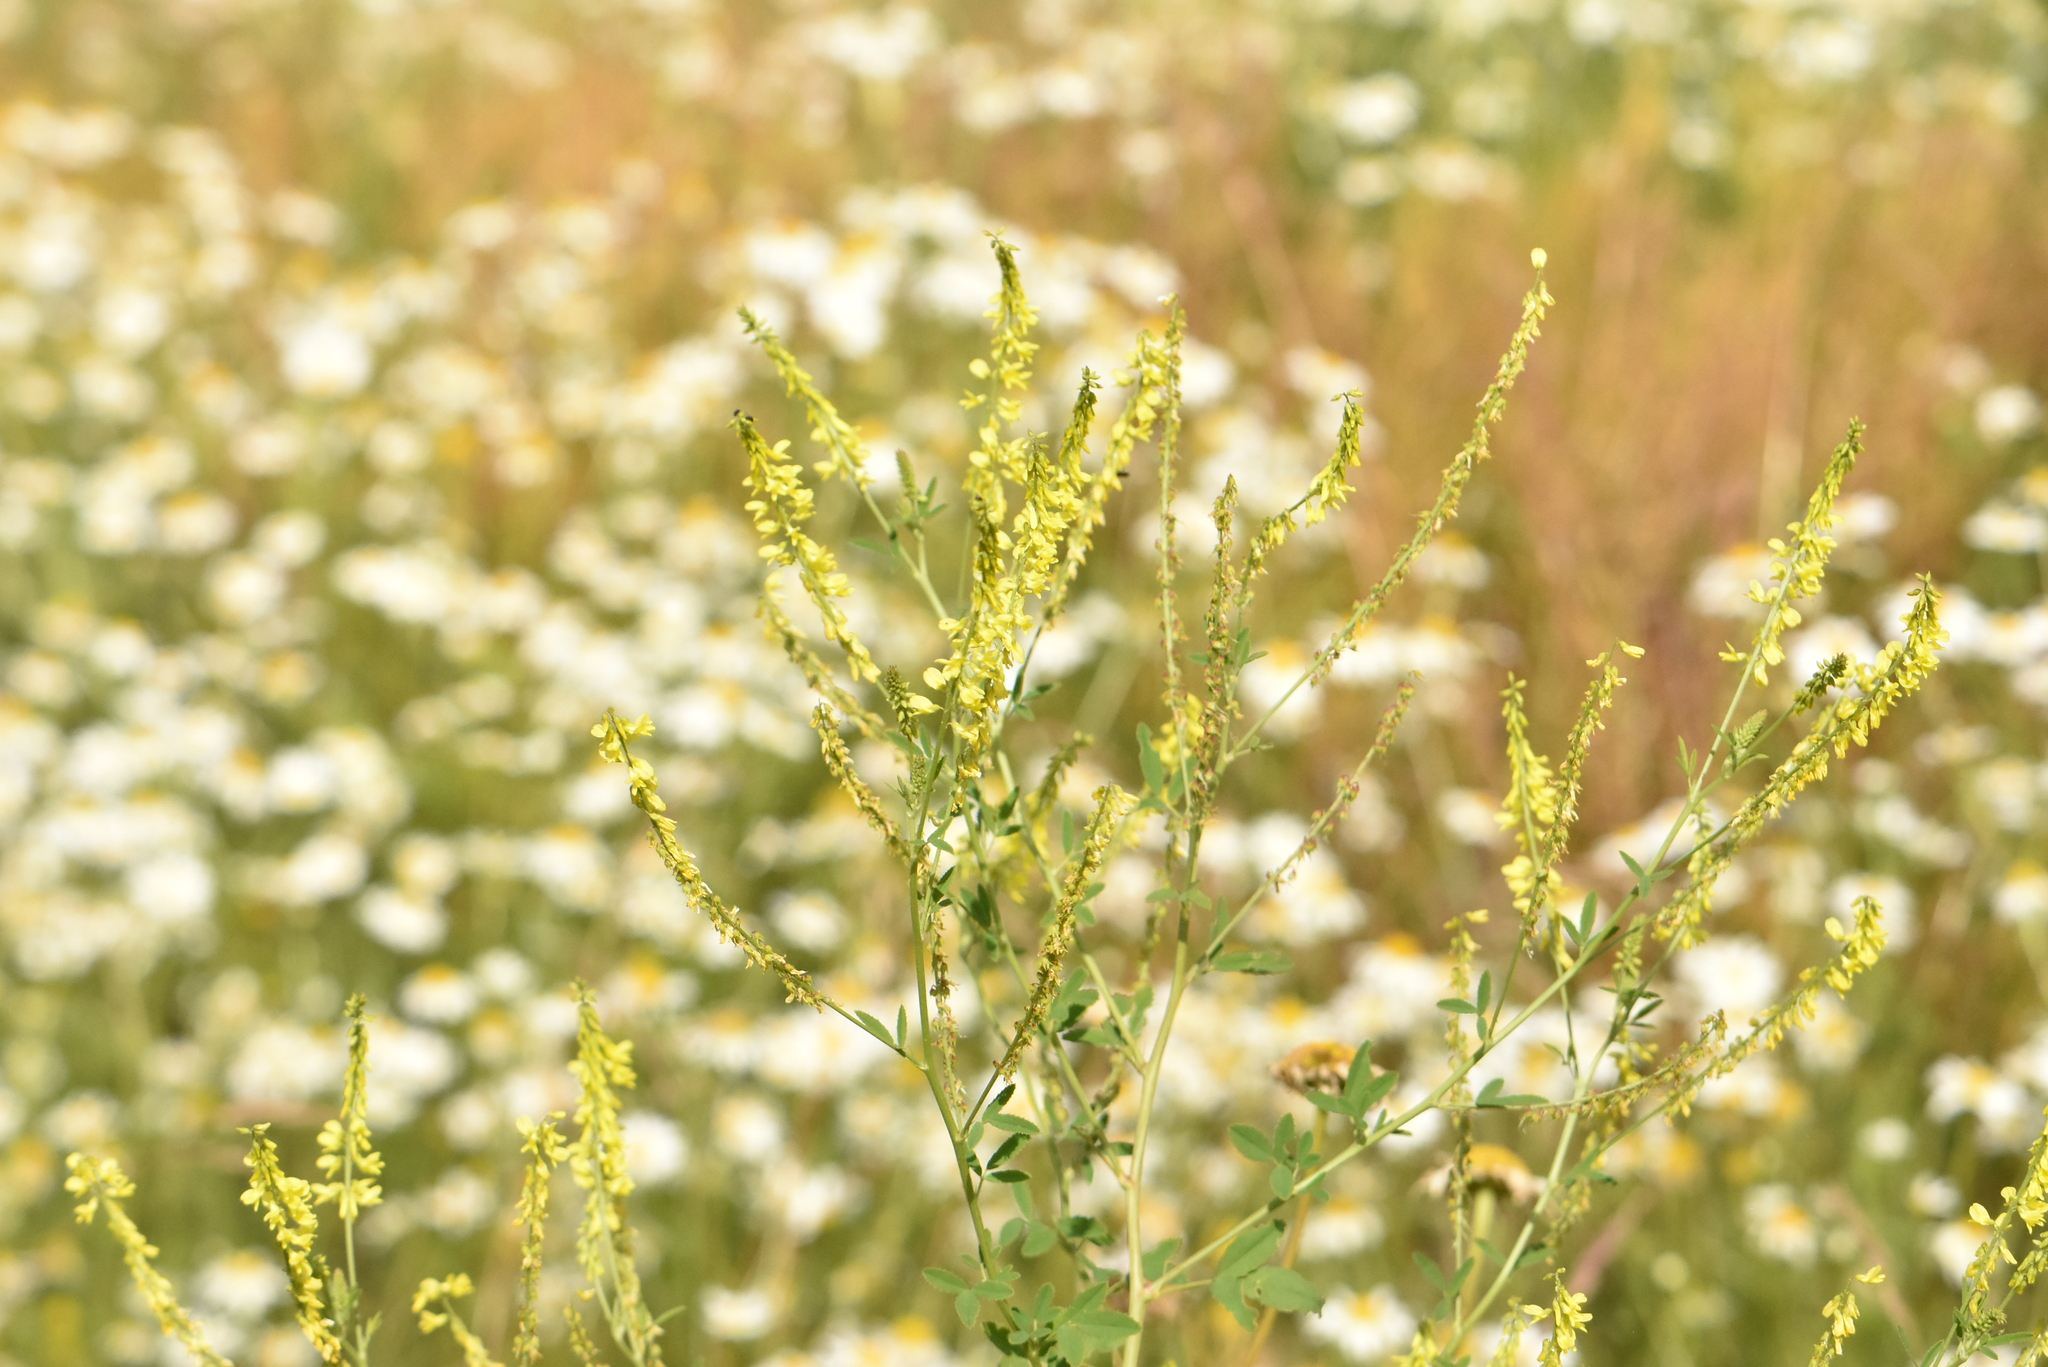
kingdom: Plantae
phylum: Tracheophyta
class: Magnoliopsida
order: Fabales
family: Fabaceae
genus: Melilotus
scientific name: Melilotus officinalis
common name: Sweetclover
